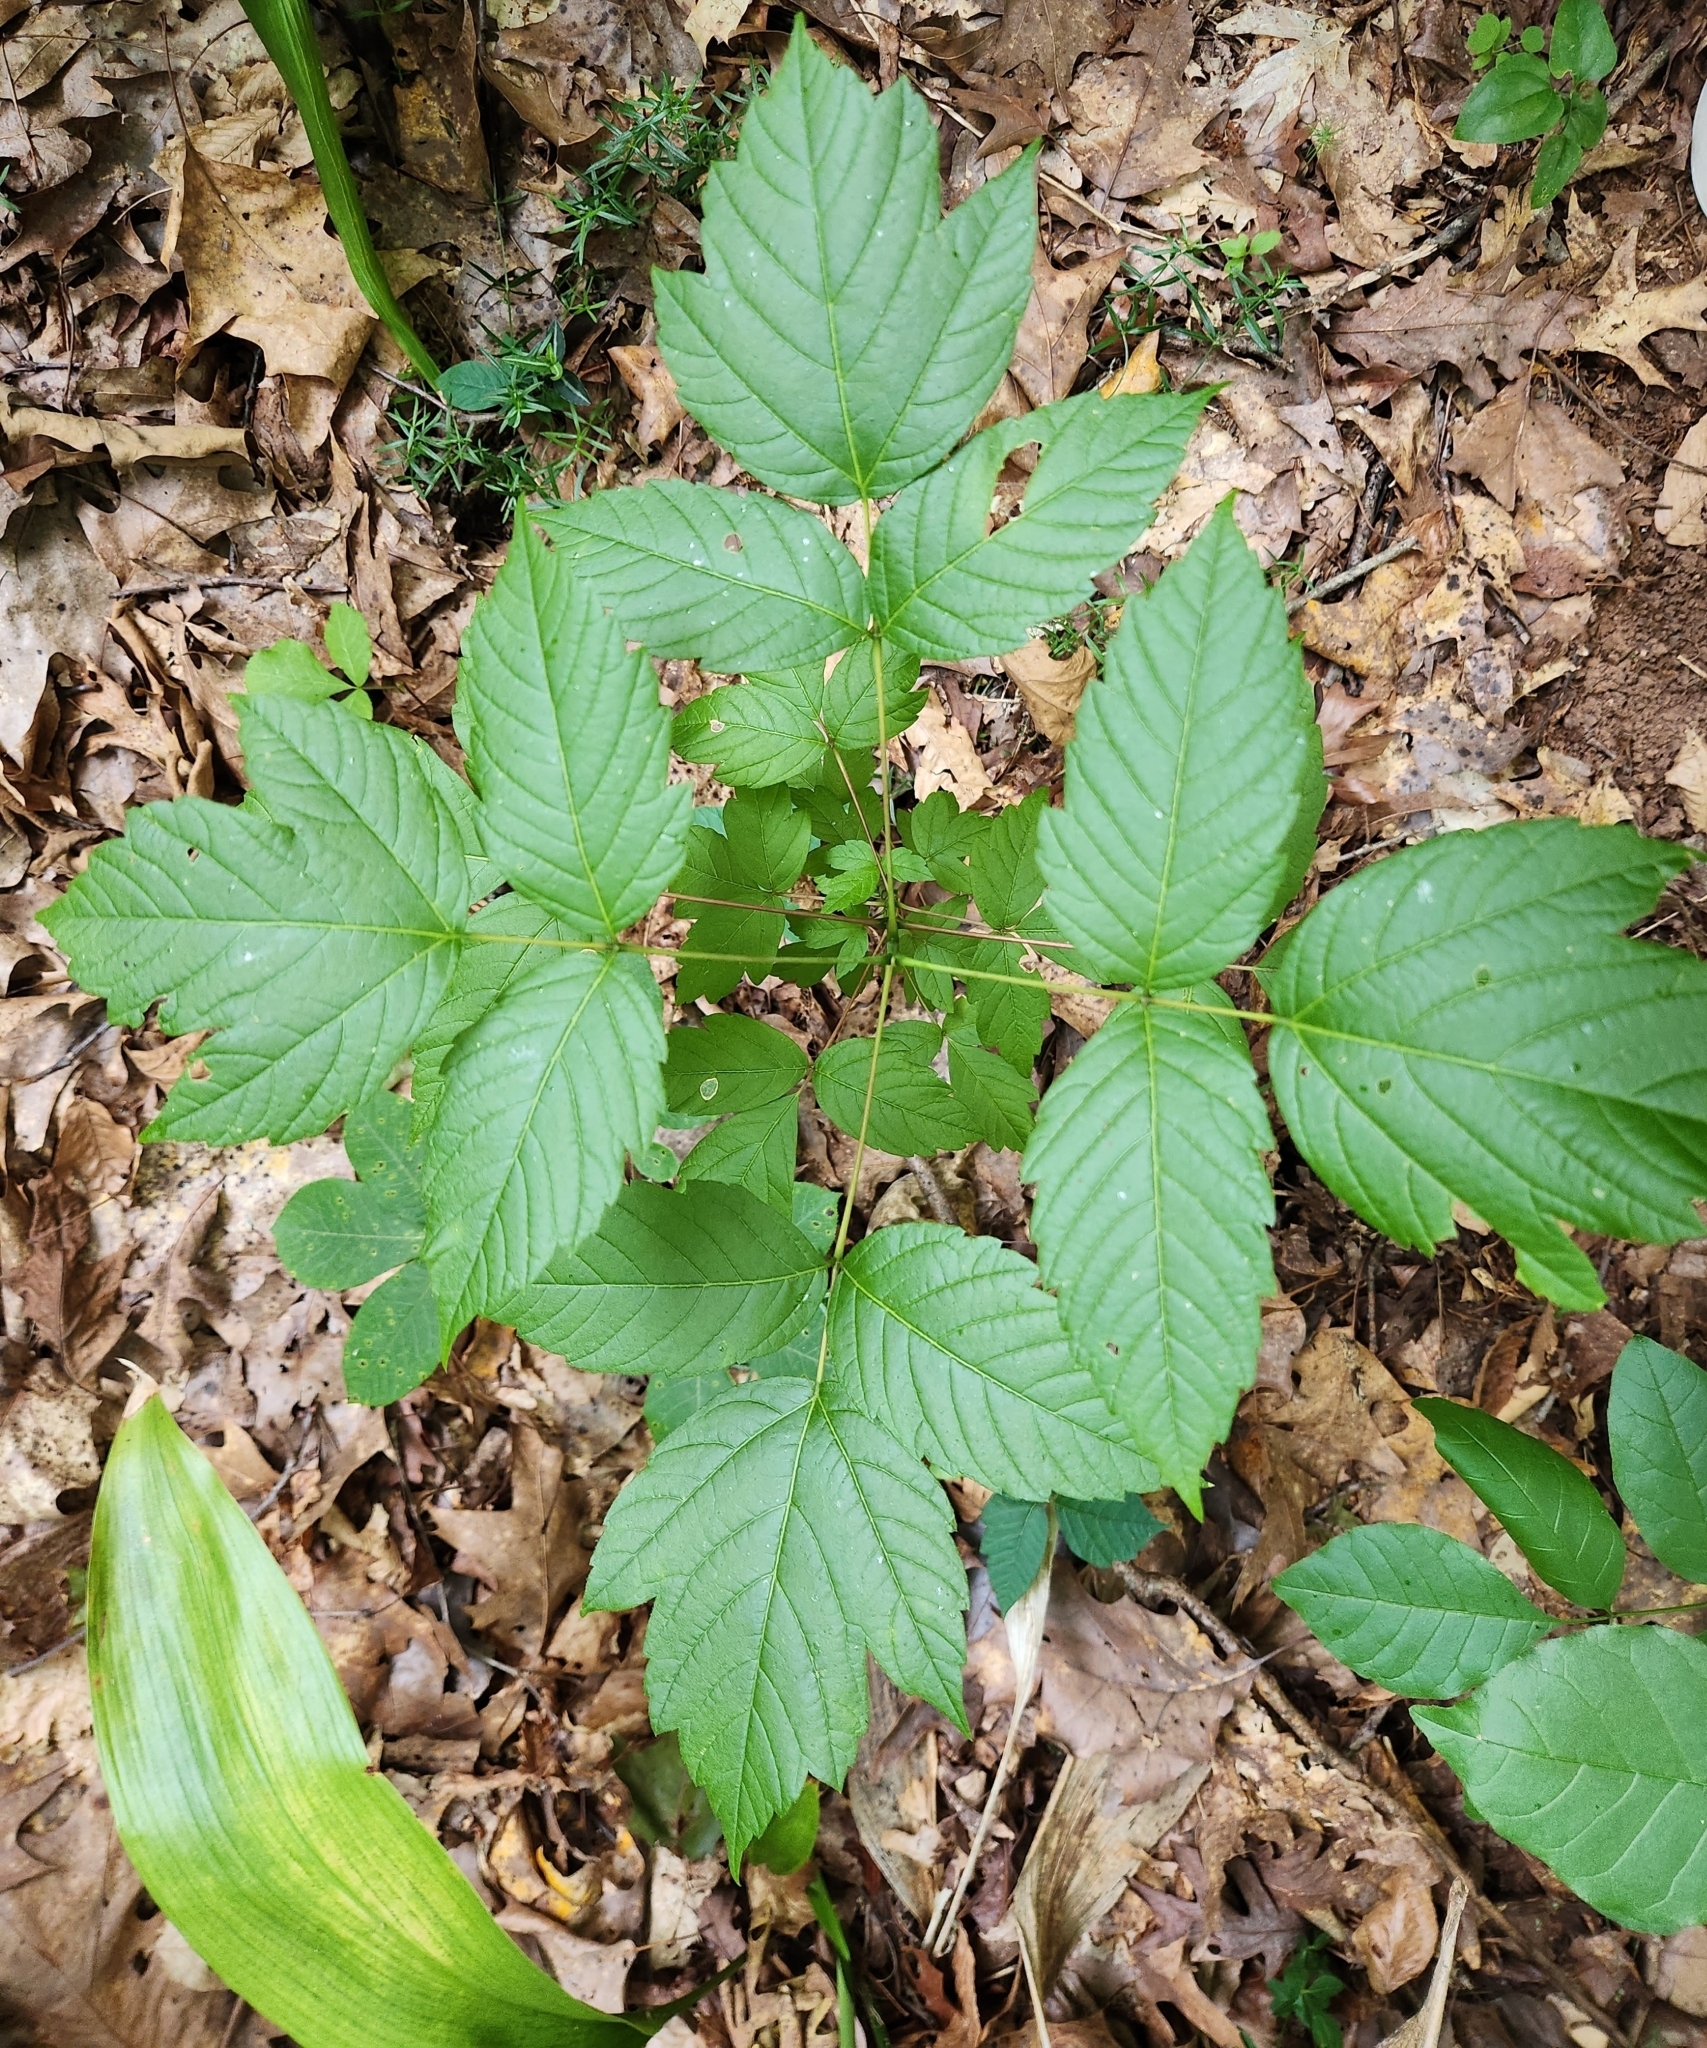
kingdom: Plantae
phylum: Tracheophyta
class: Magnoliopsida
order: Sapindales
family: Sapindaceae
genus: Acer
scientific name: Acer negundo
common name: Ashleaf maple
